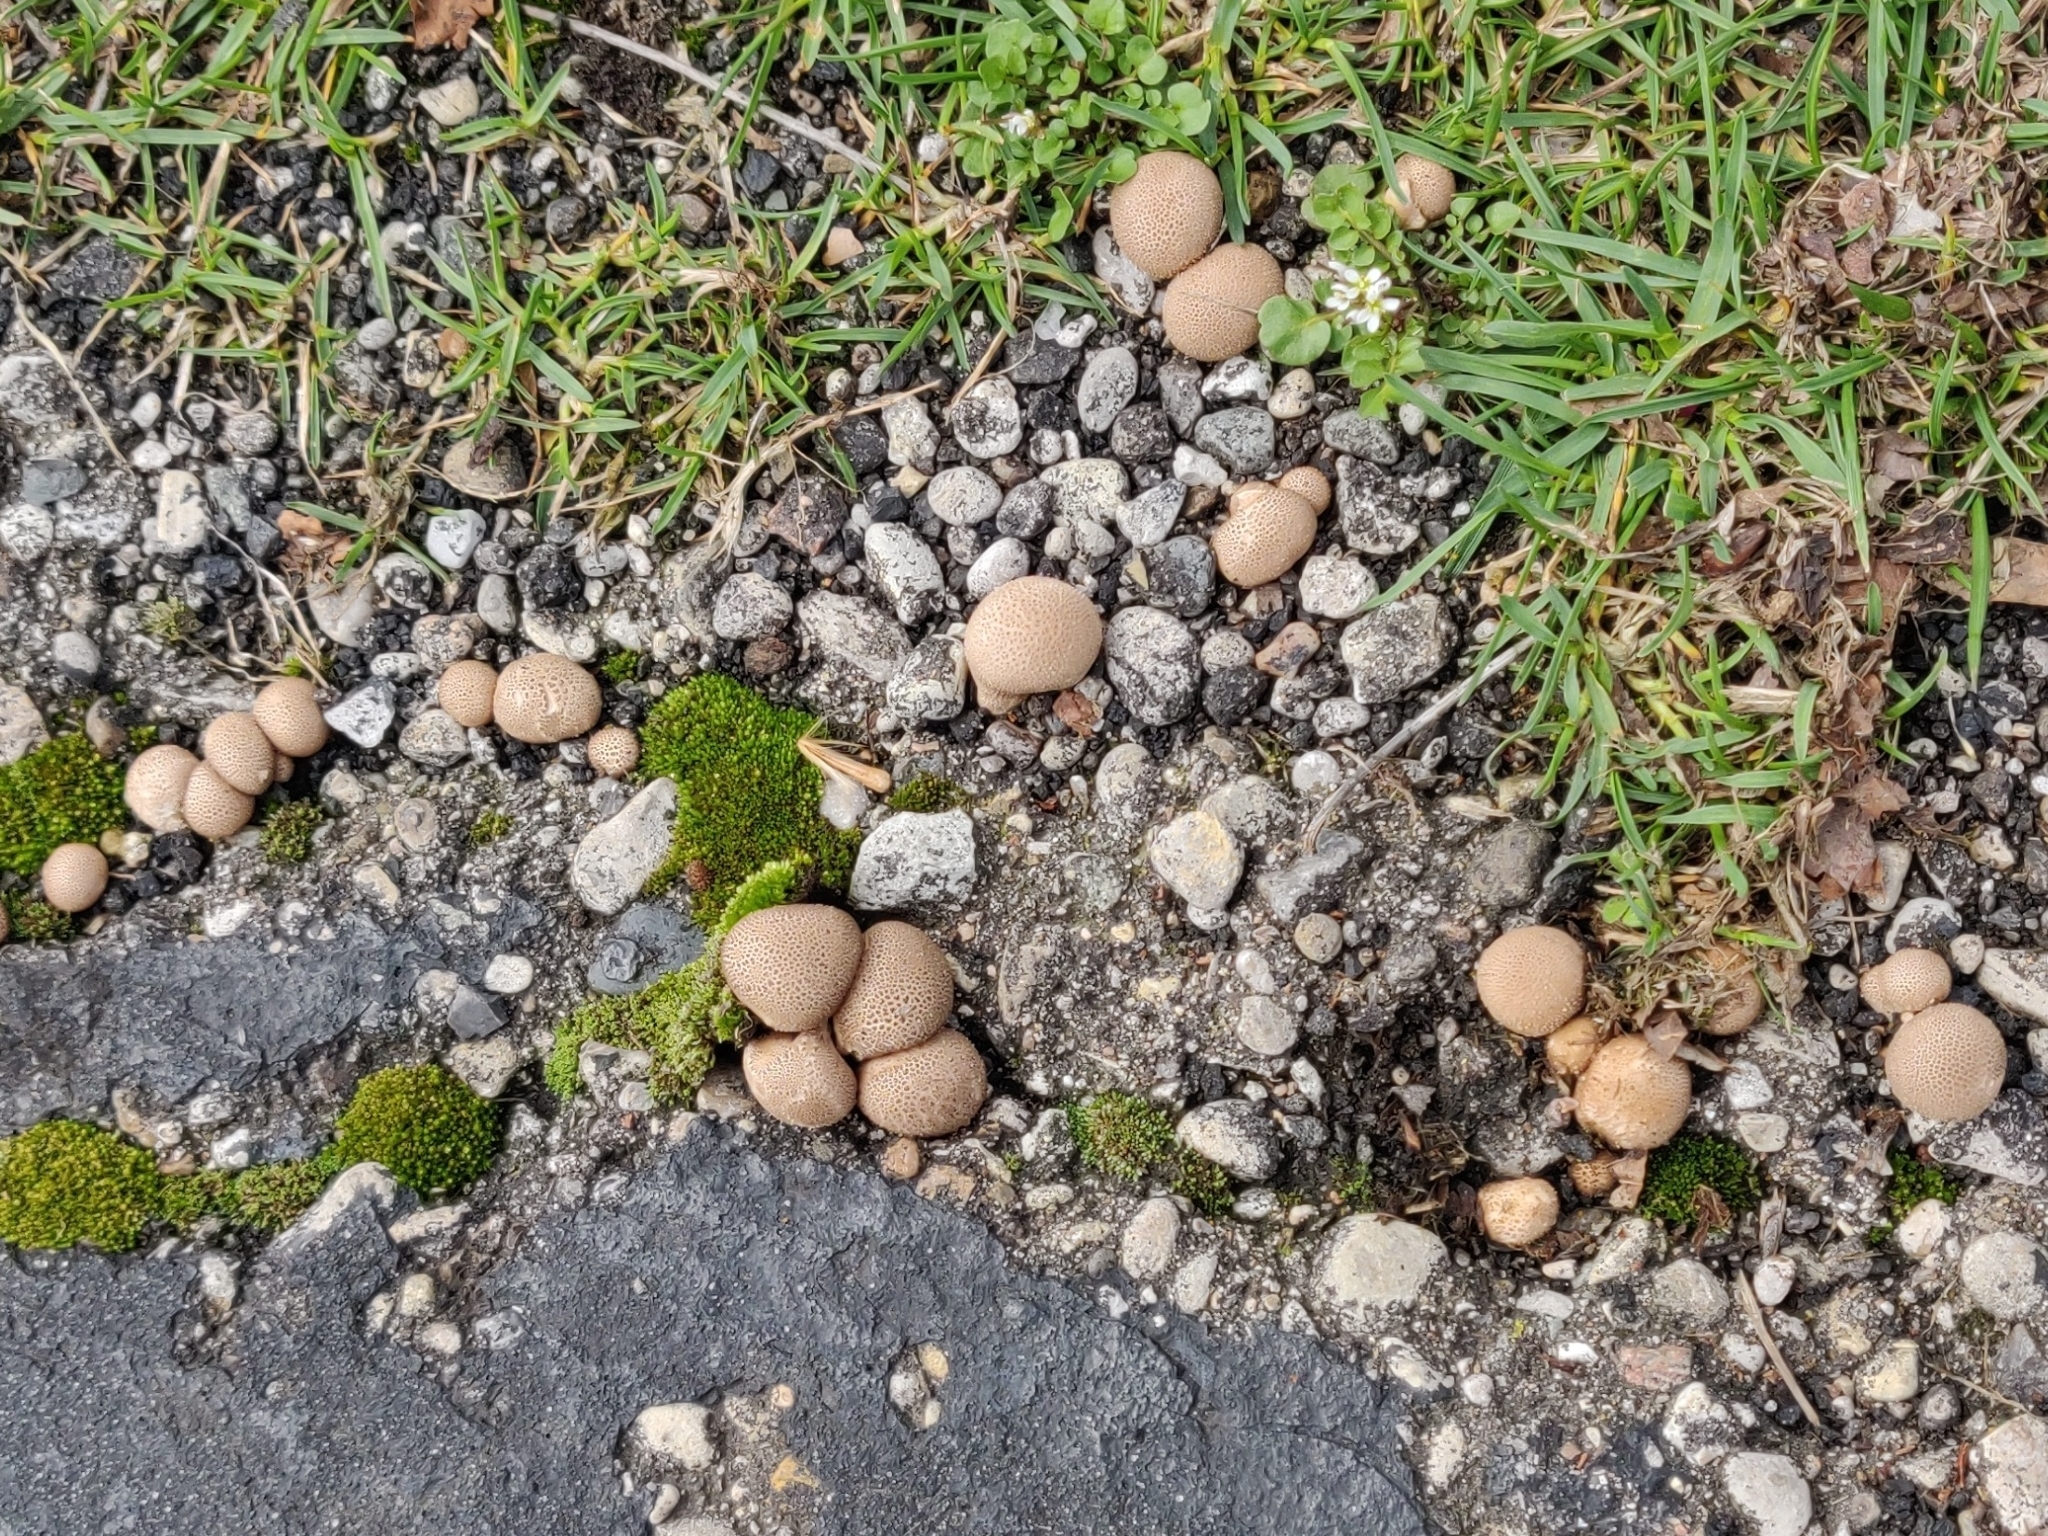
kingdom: Fungi
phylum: Basidiomycota
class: Agaricomycetes
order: Boletales
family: Sclerodermataceae
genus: Scleroderma
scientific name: Scleroderma areolatum
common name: Leopard earthball
